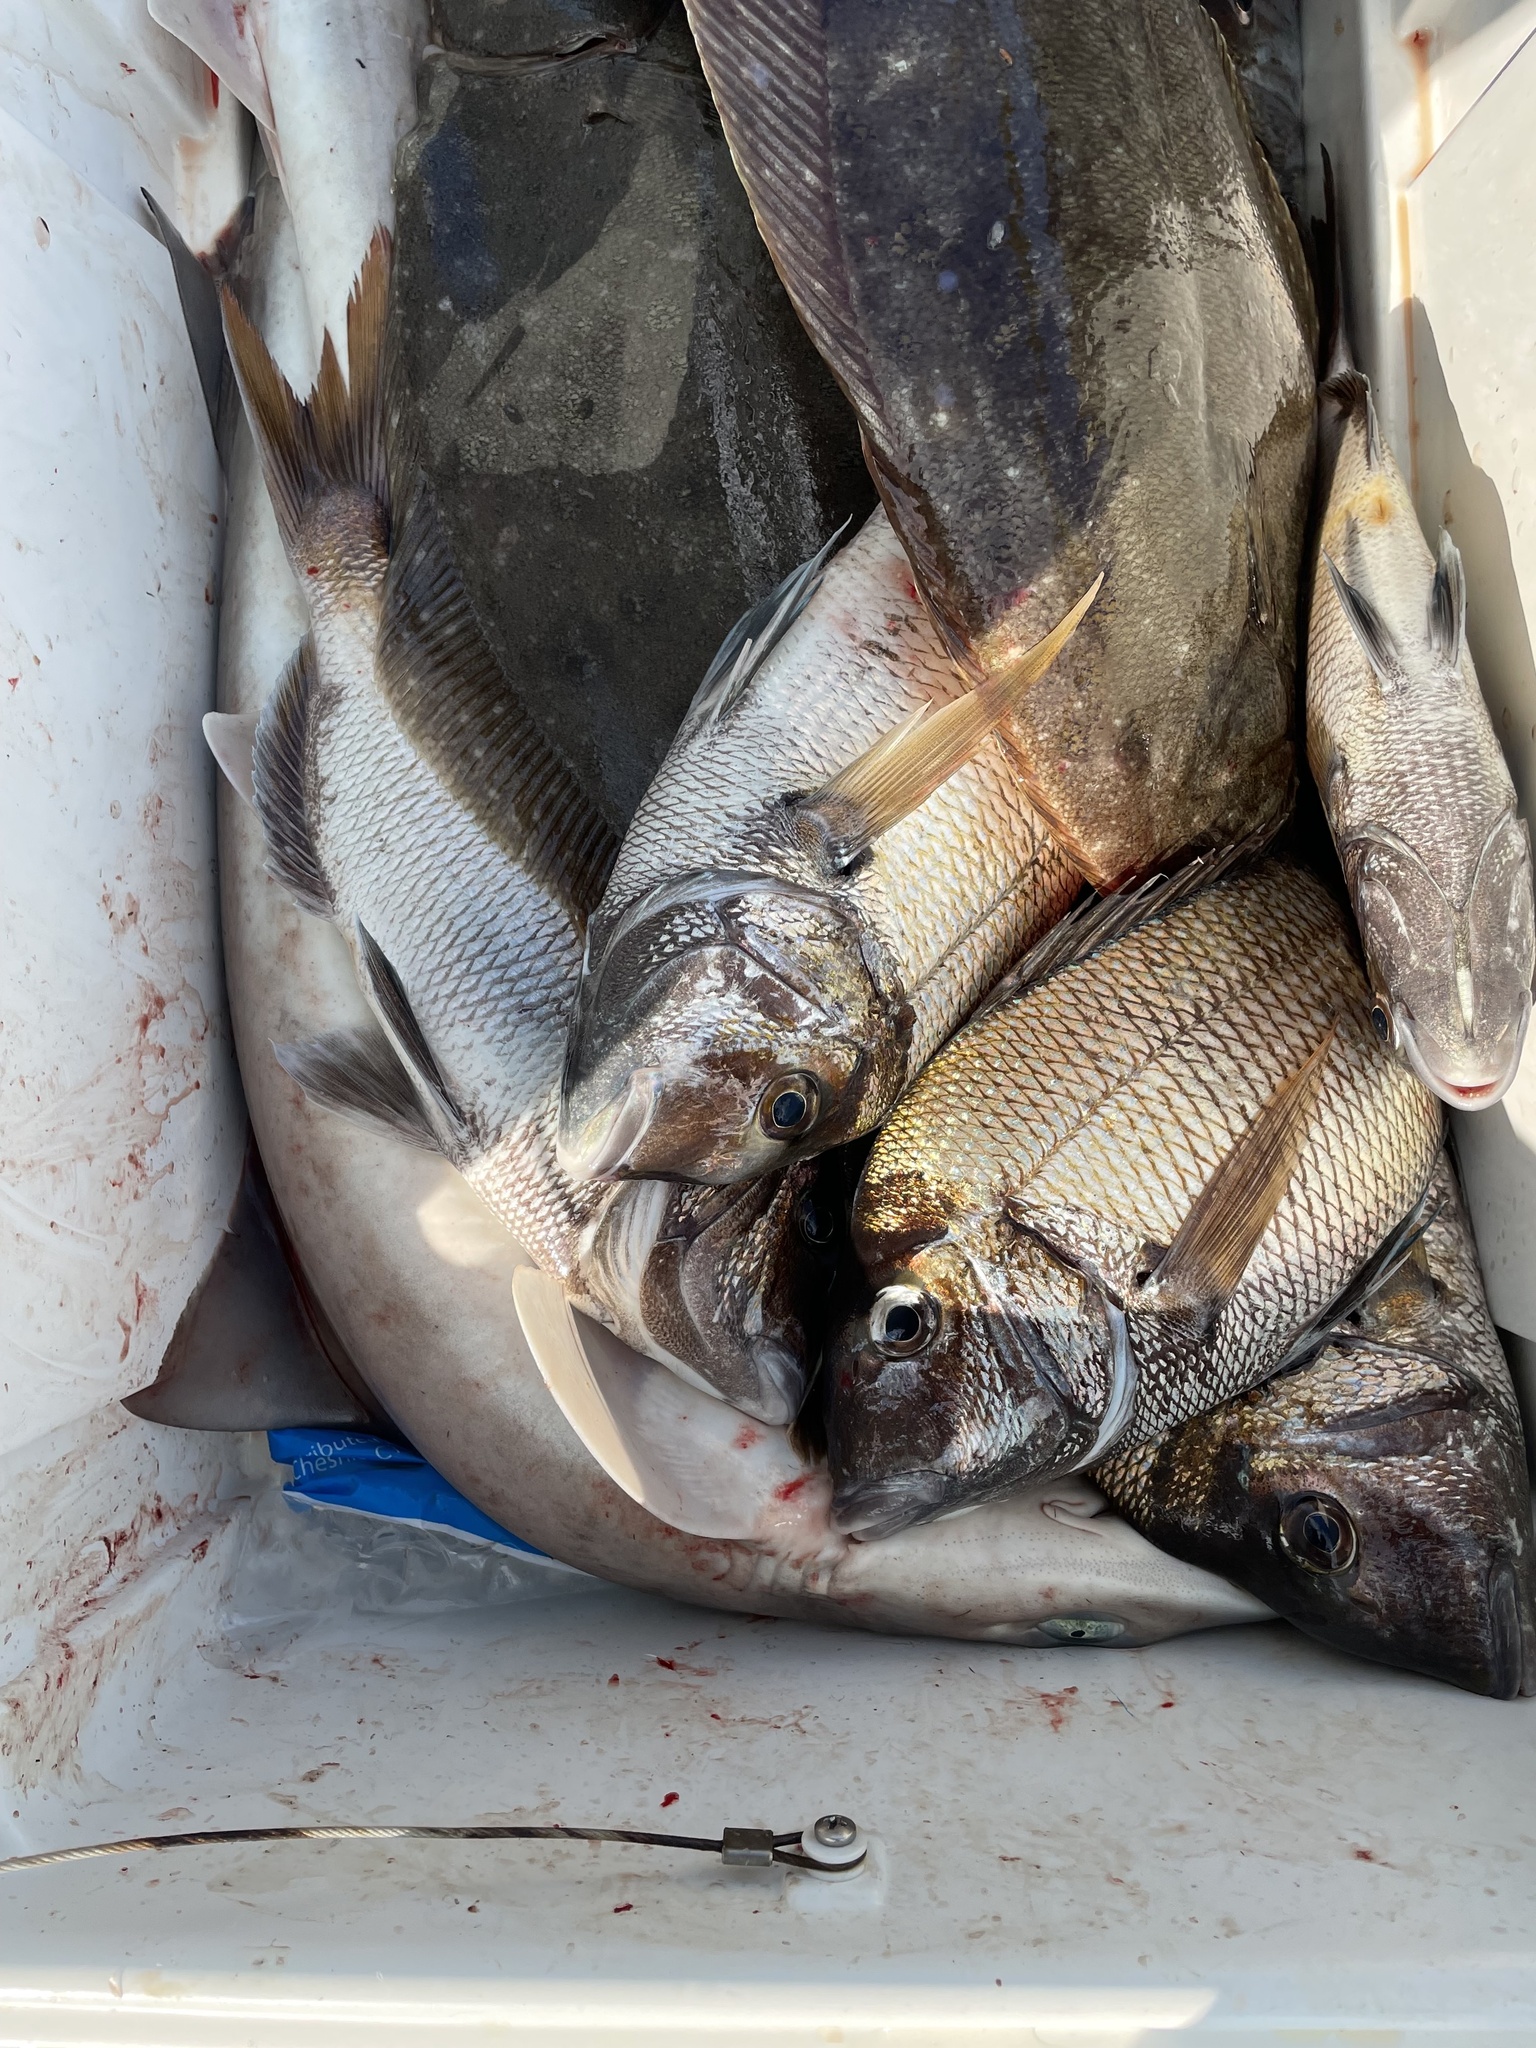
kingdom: Animalia
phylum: Chordata
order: Pleuronectiformes
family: Paralichthyidae
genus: Paralichthys
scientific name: Paralichthys dentatus
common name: Summer flounder
